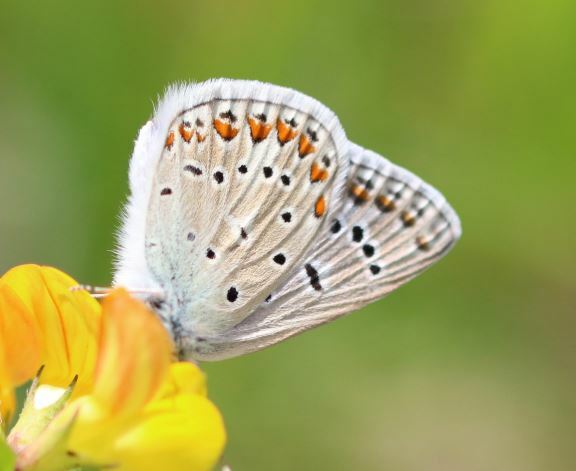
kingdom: Animalia
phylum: Arthropoda
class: Insecta
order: Lepidoptera
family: Lycaenidae
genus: Polyommatus
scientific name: Polyommatus icarus
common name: Common blue
